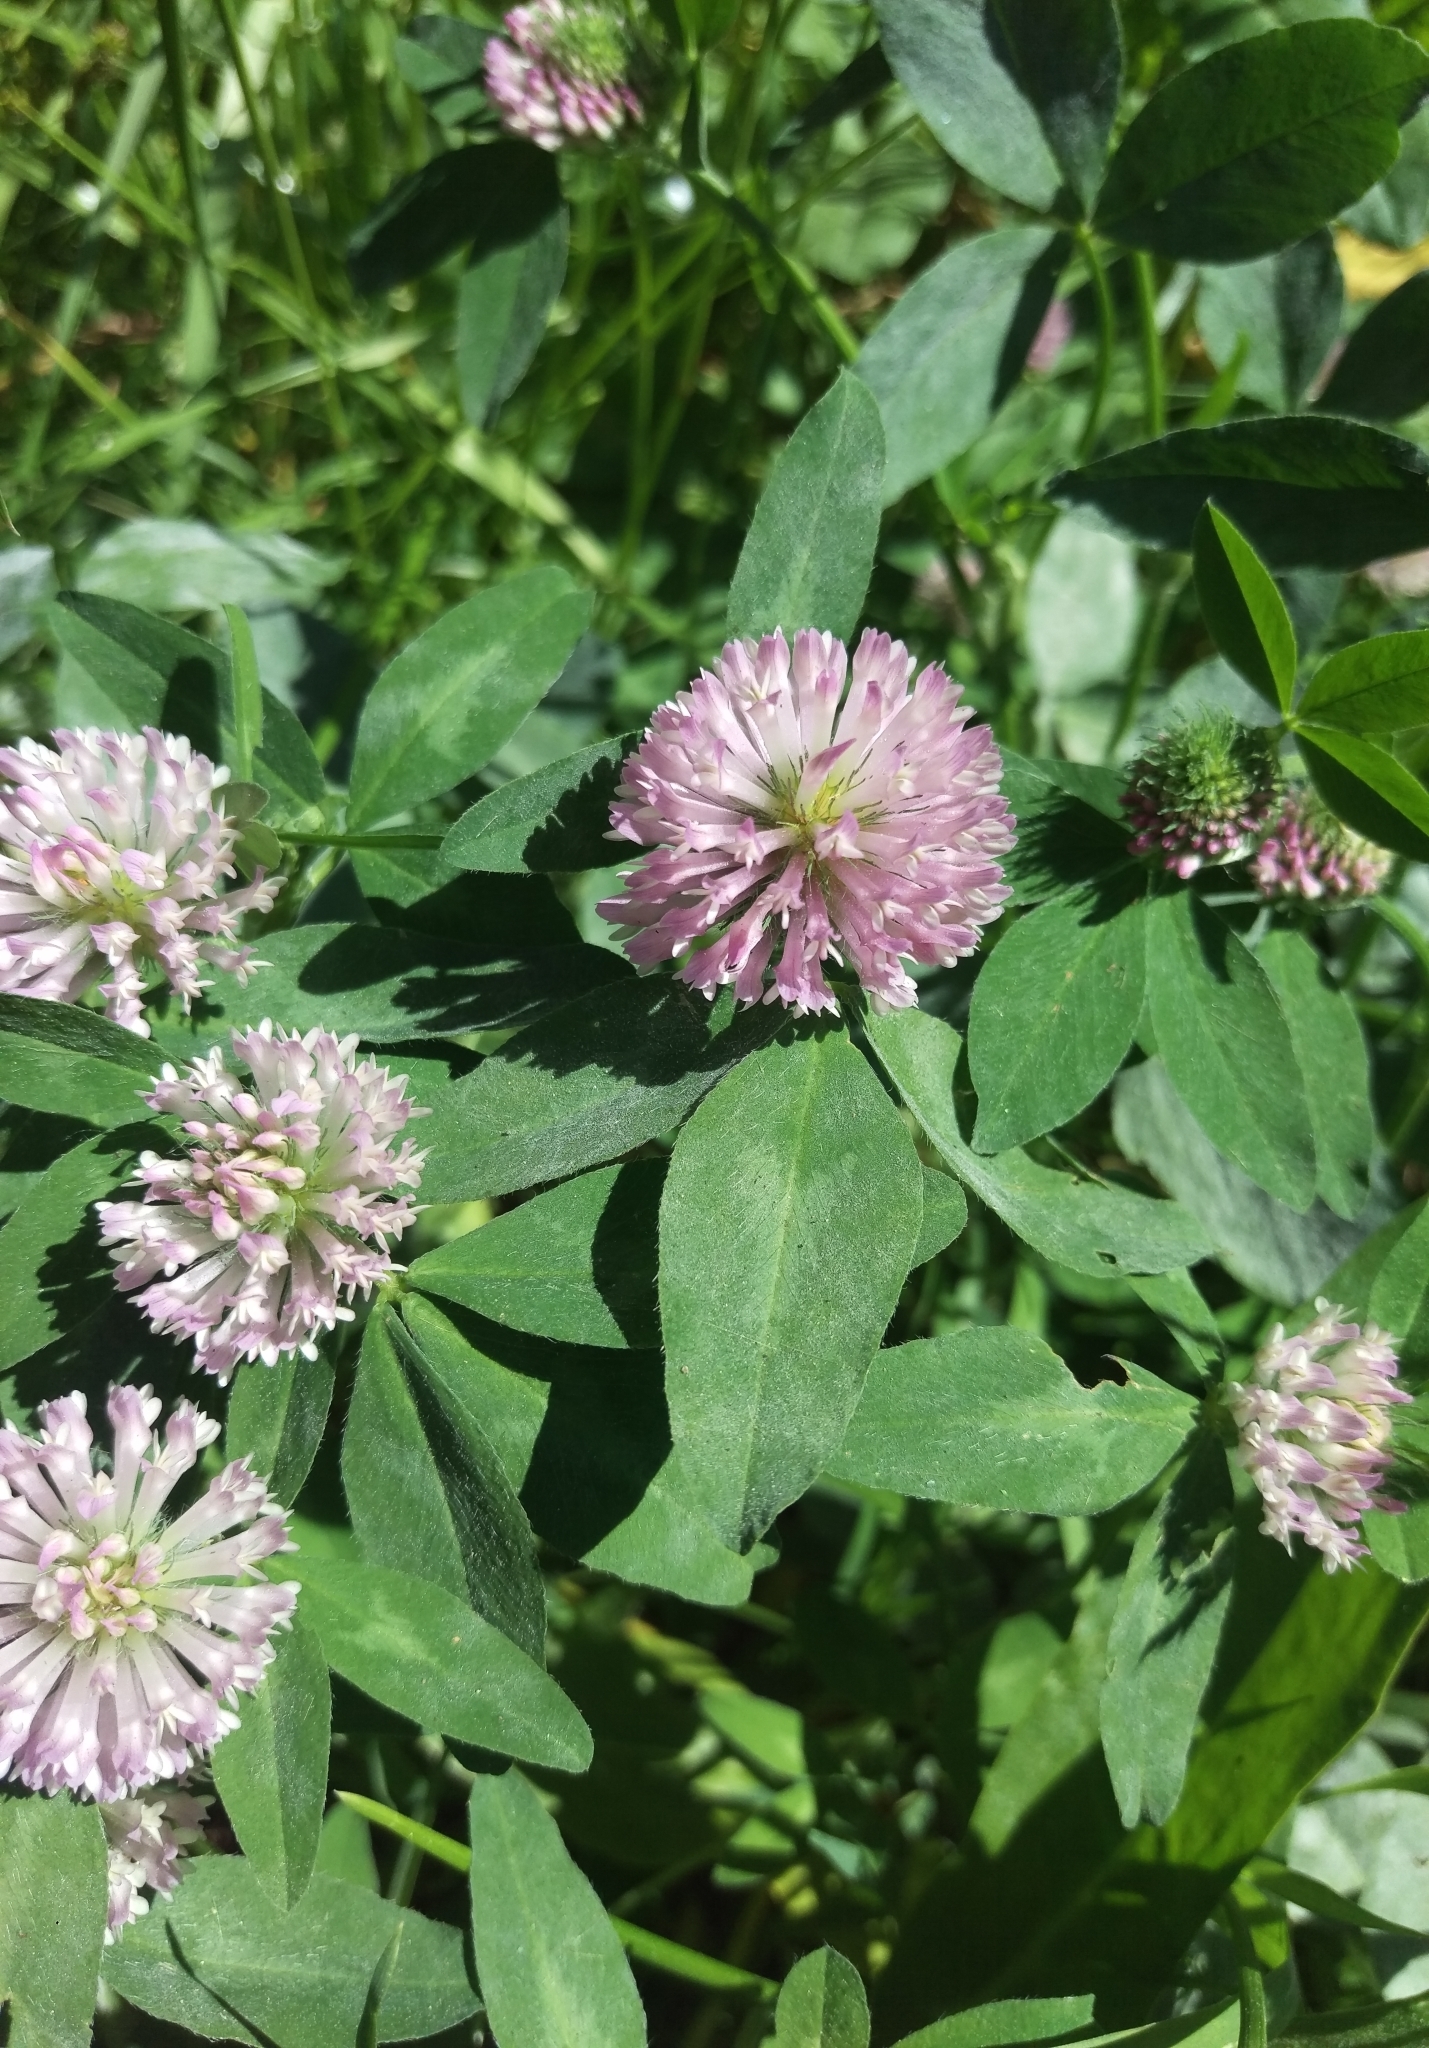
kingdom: Plantae
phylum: Tracheophyta
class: Magnoliopsida
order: Fabales
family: Fabaceae
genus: Trifolium
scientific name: Trifolium pratense
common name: Red clover
